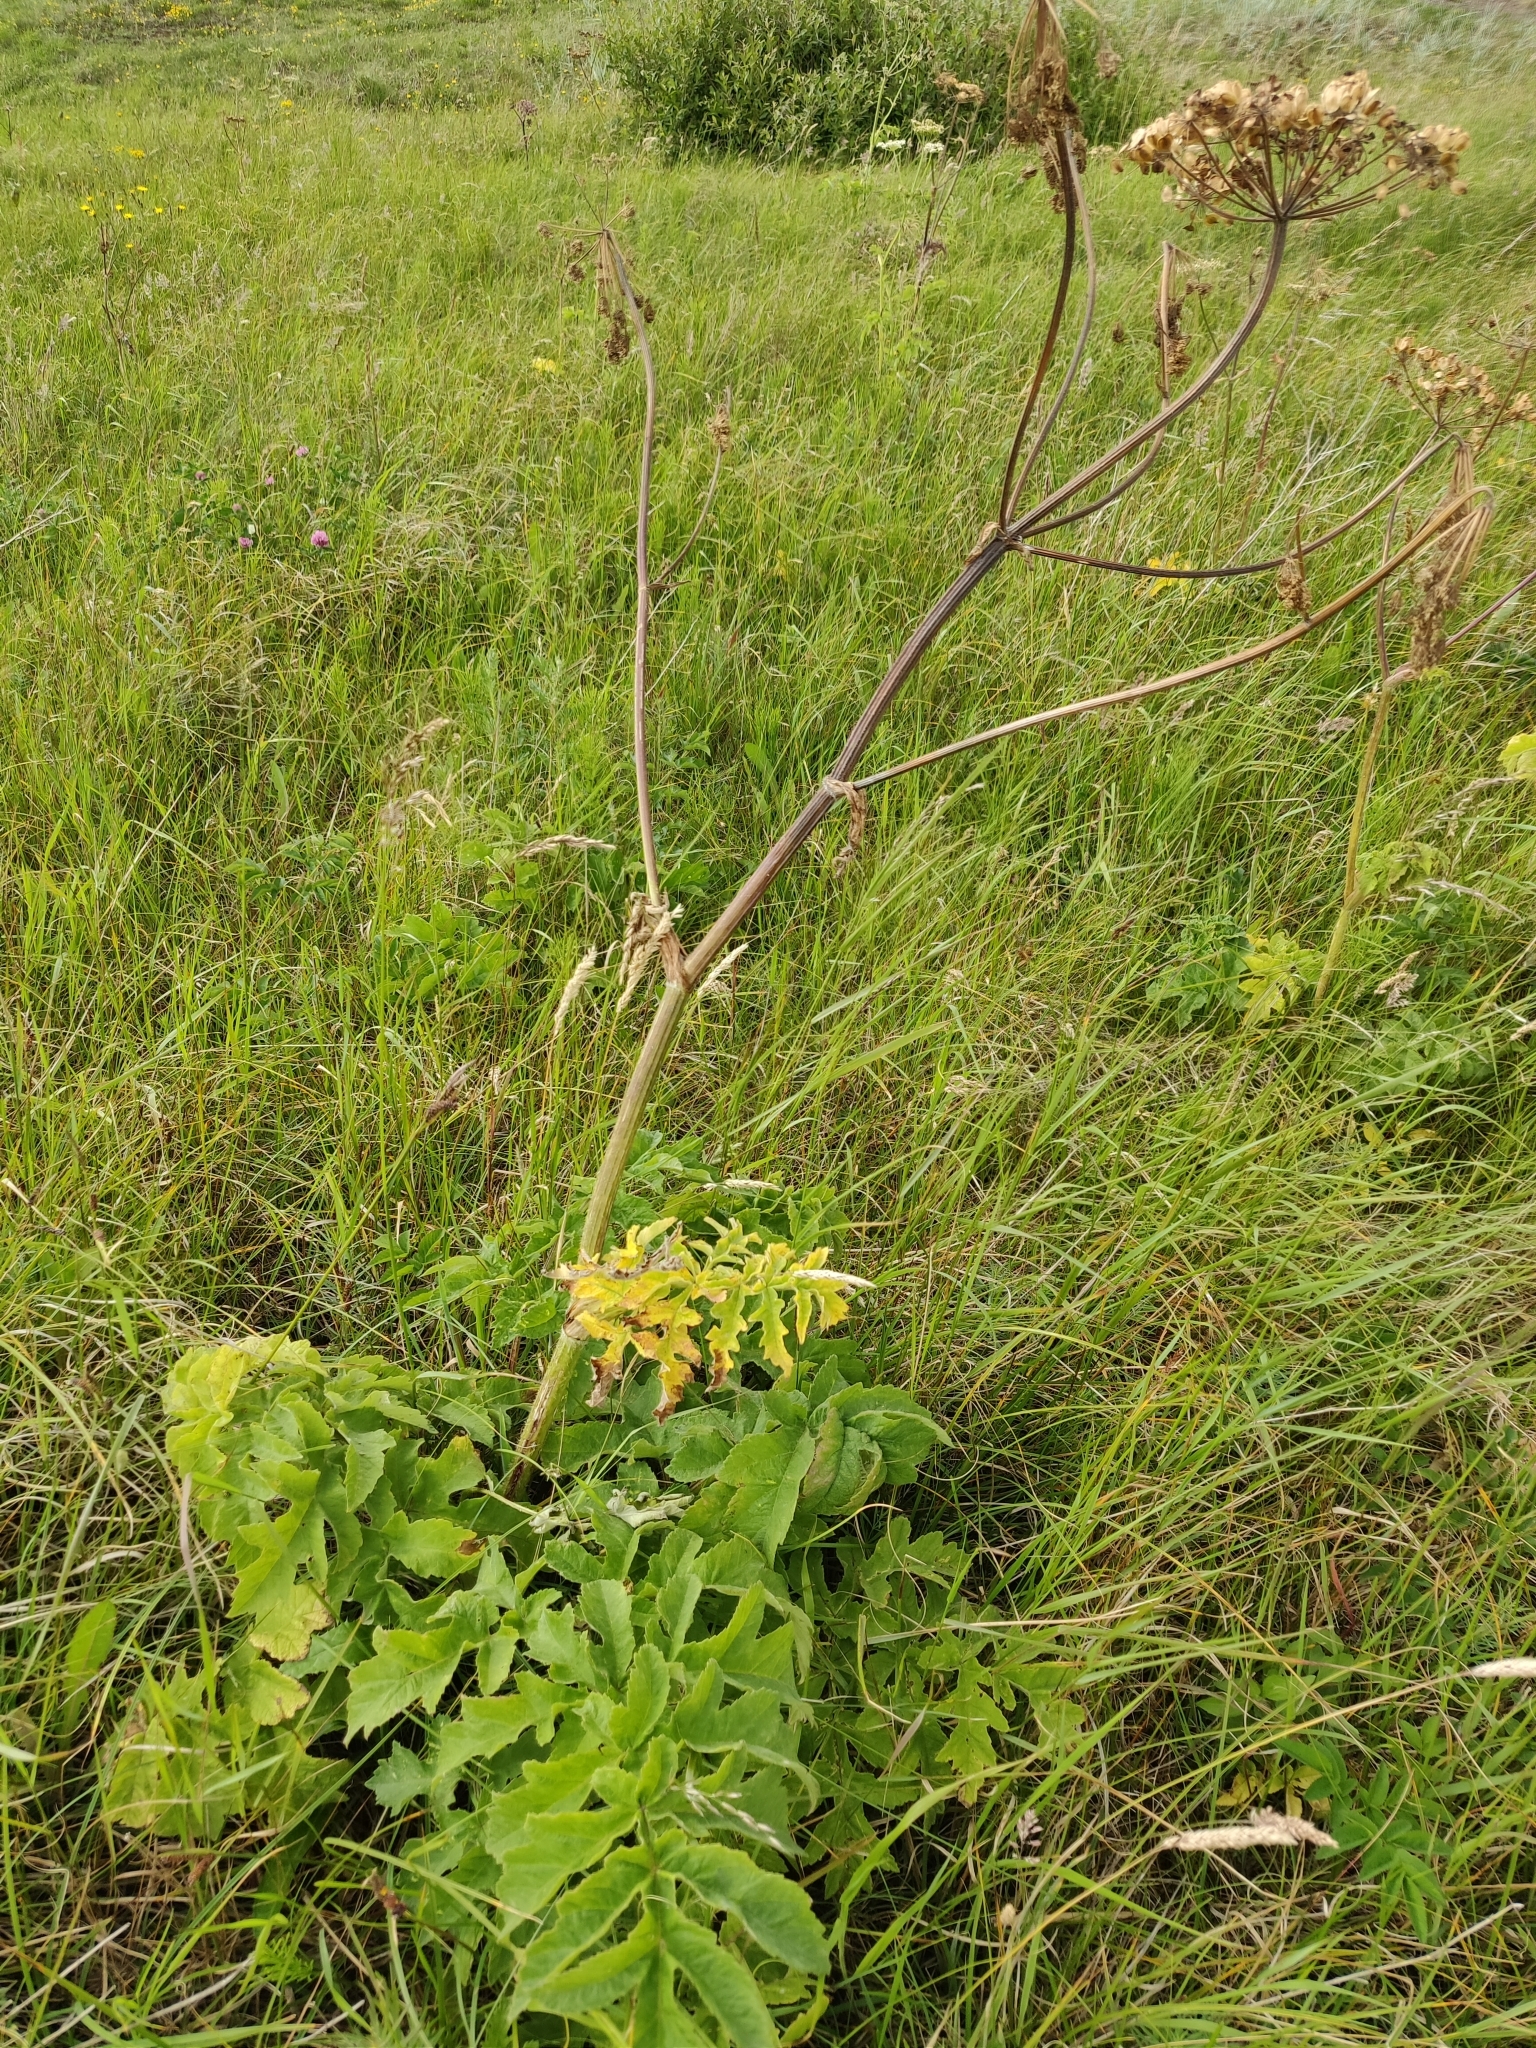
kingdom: Plantae
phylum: Tracheophyta
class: Magnoliopsida
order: Apiales
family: Apiaceae
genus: Heracleum
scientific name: Heracleum sphondylium
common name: Hogweed
